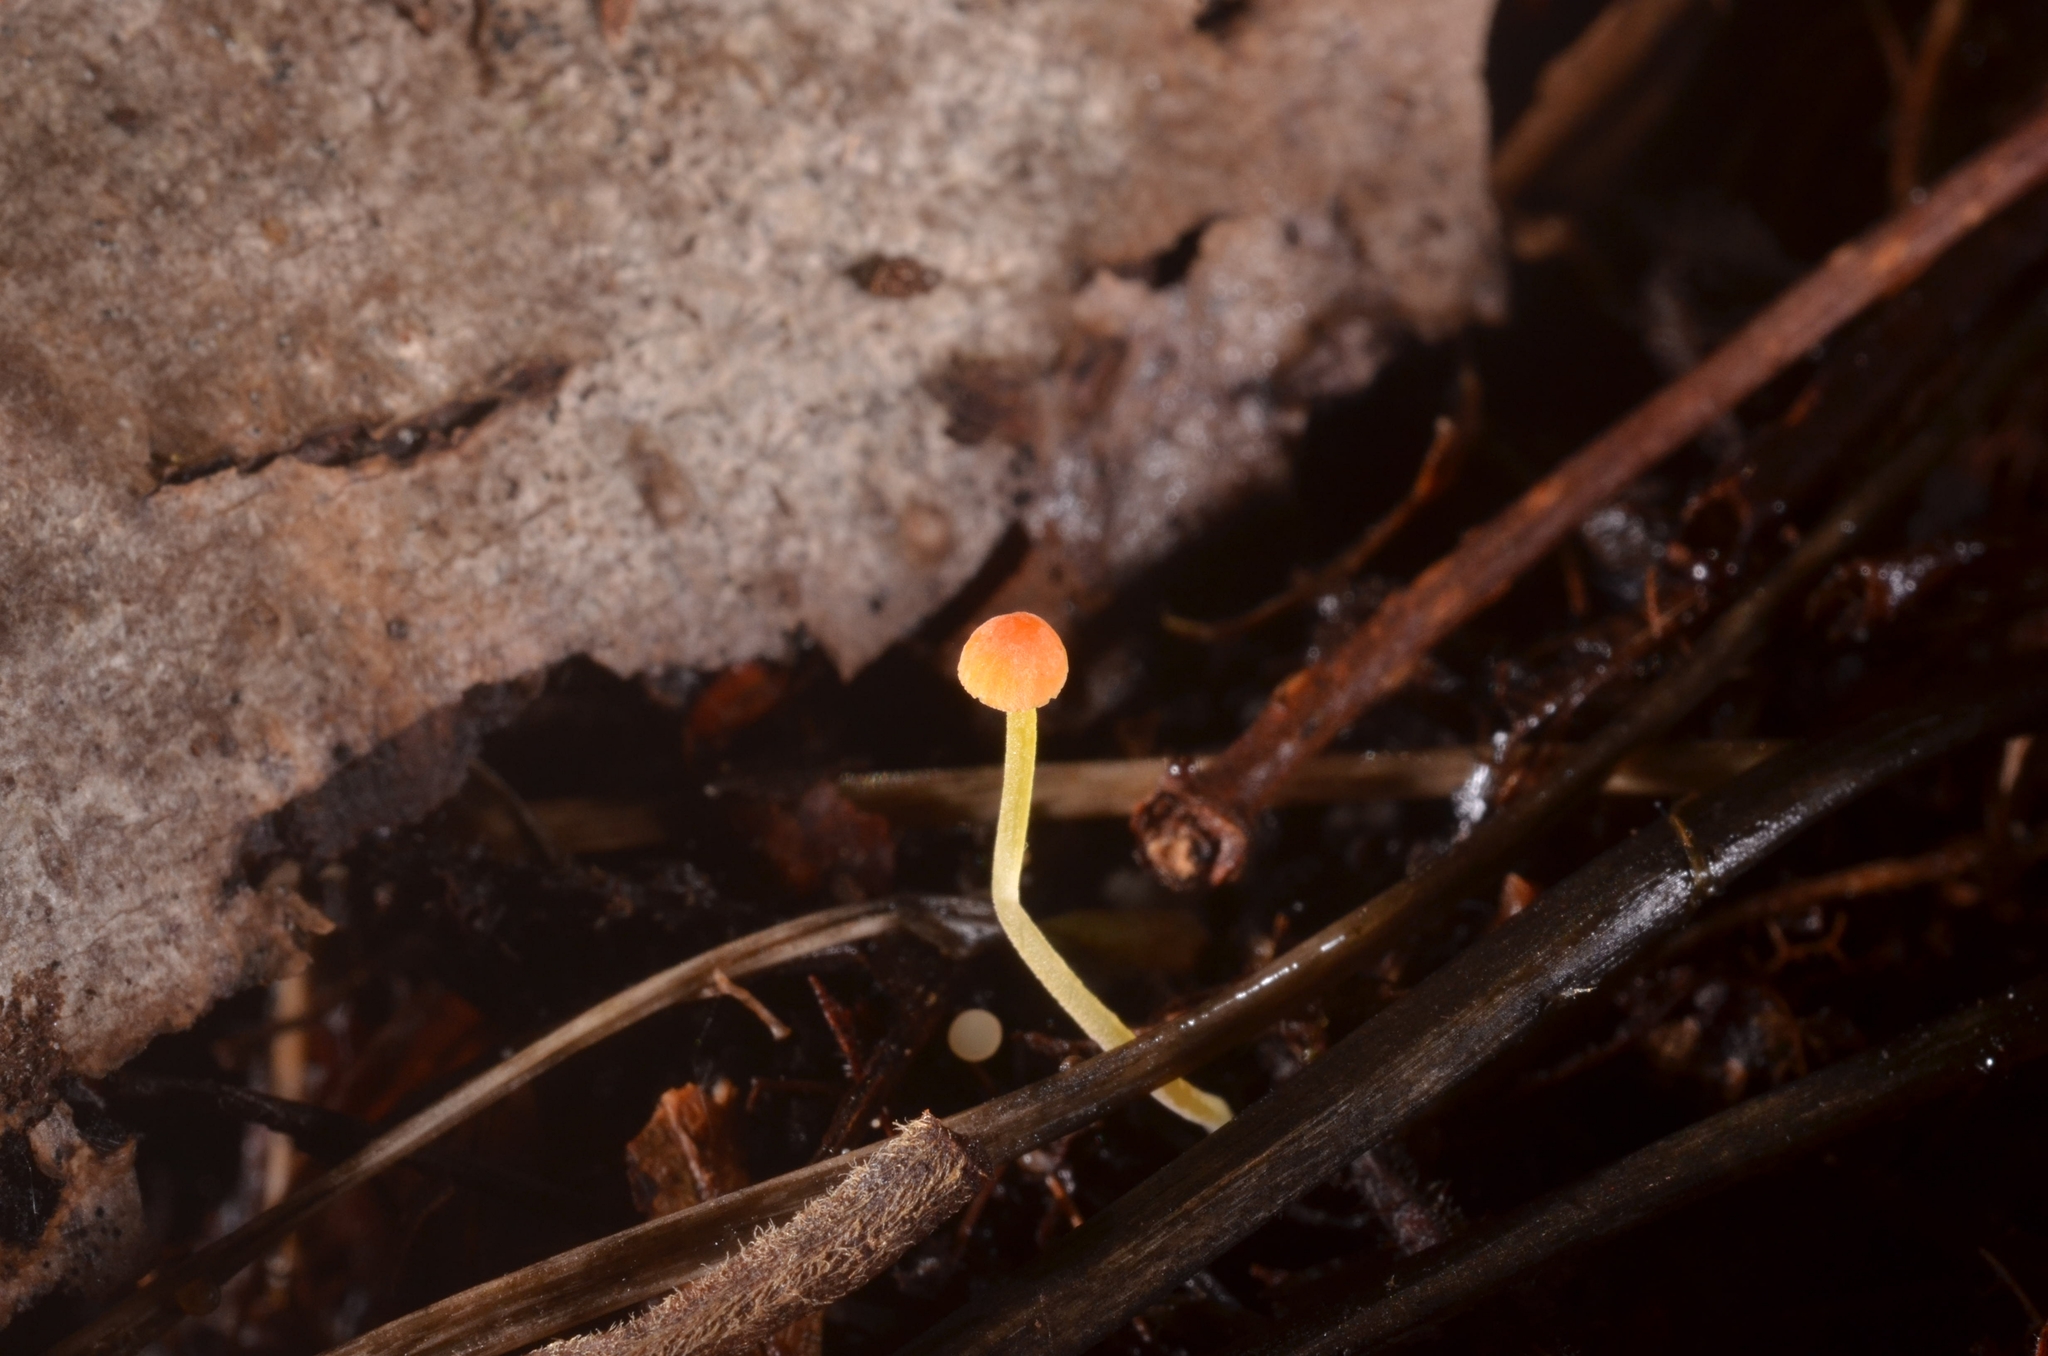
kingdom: Fungi
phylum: Basidiomycota
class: Agaricomycetes
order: Agaricales
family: Mycenaceae
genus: Mycena
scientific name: Mycena acicula
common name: Orange bonnet
